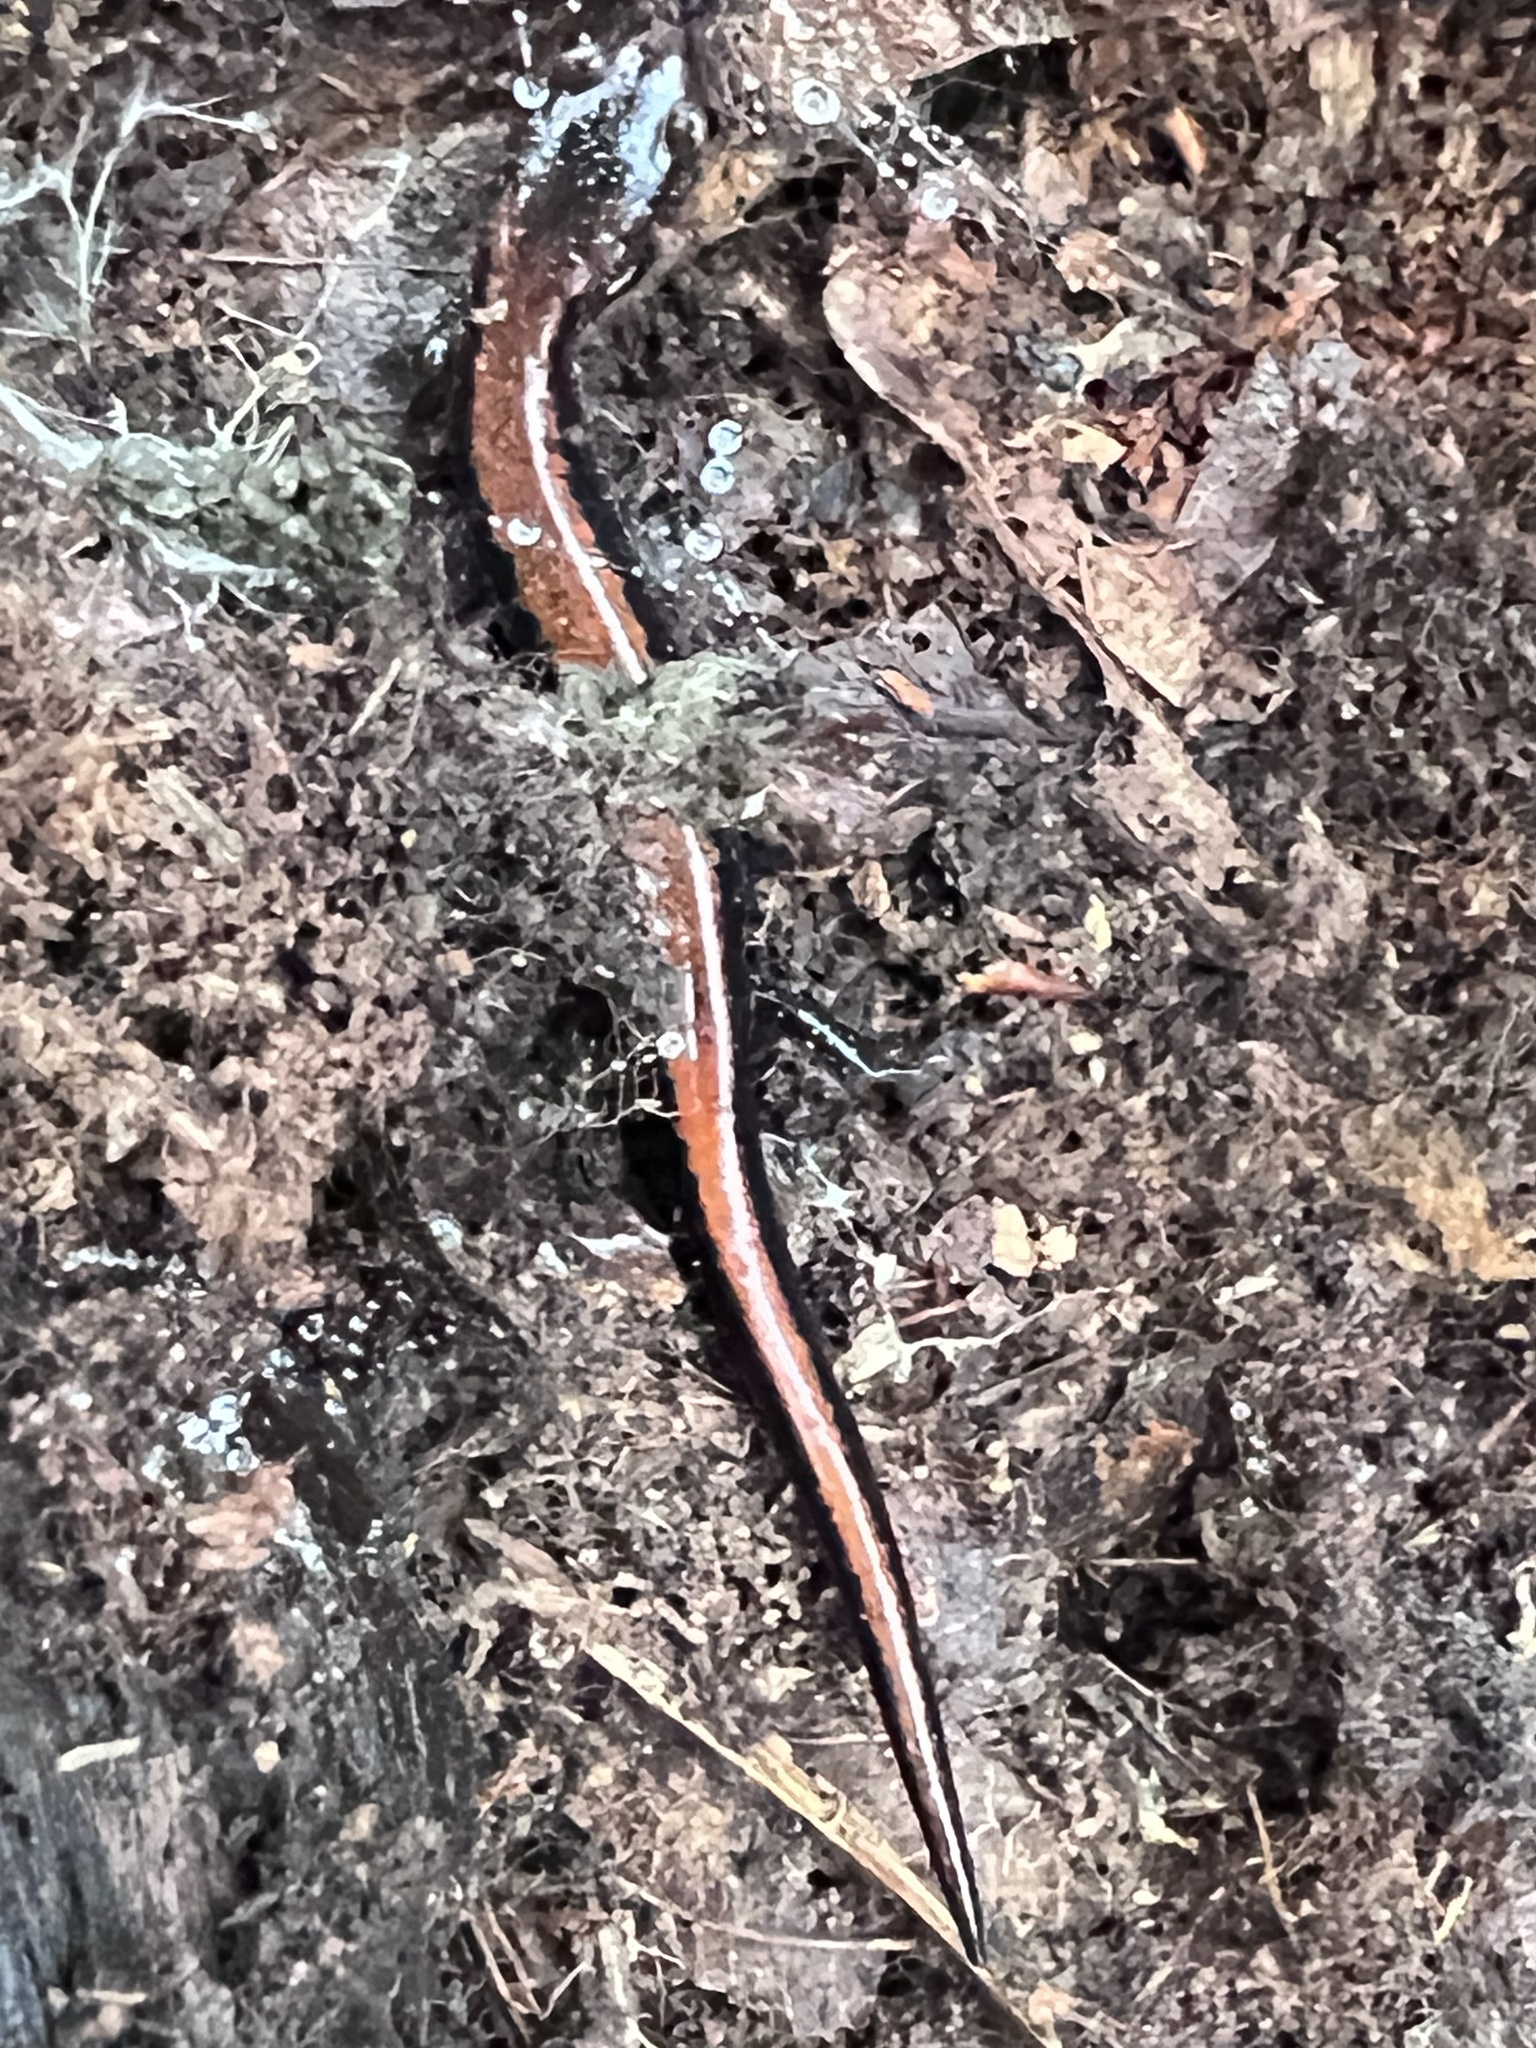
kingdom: Animalia
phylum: Chordata
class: Amphibia
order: Caudata
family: Plethodontidae
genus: Plethodon
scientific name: Plethodon cinereus
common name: Redback salamander
